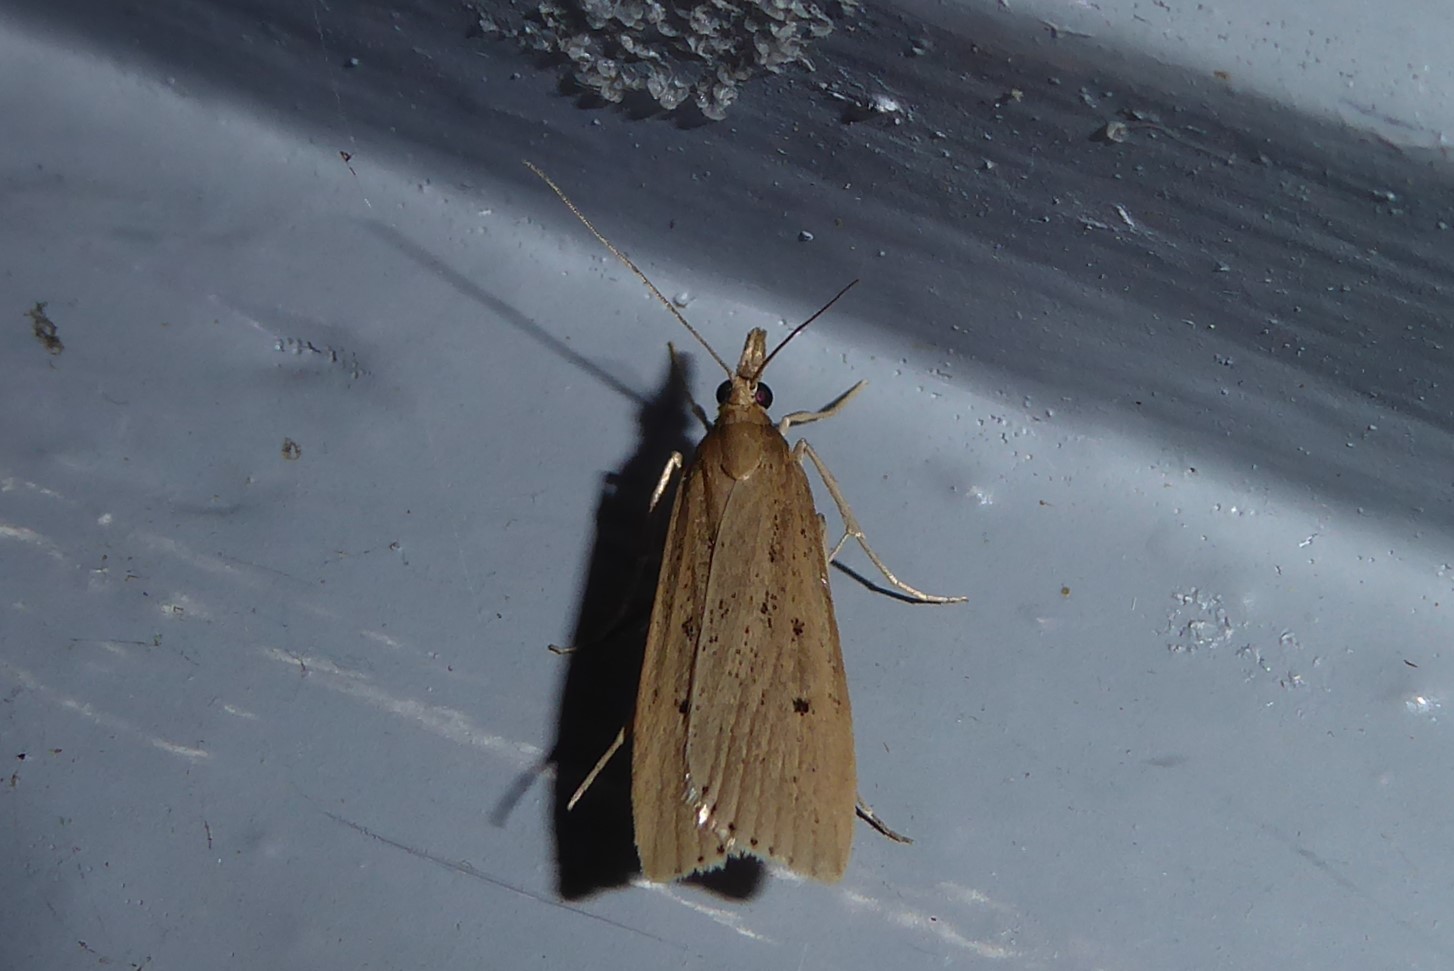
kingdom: Animalia
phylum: Arthropoda
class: Insecta
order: Lepidoptera
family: Crambidae
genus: Eudonia
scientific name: Eudonia sabulosella
